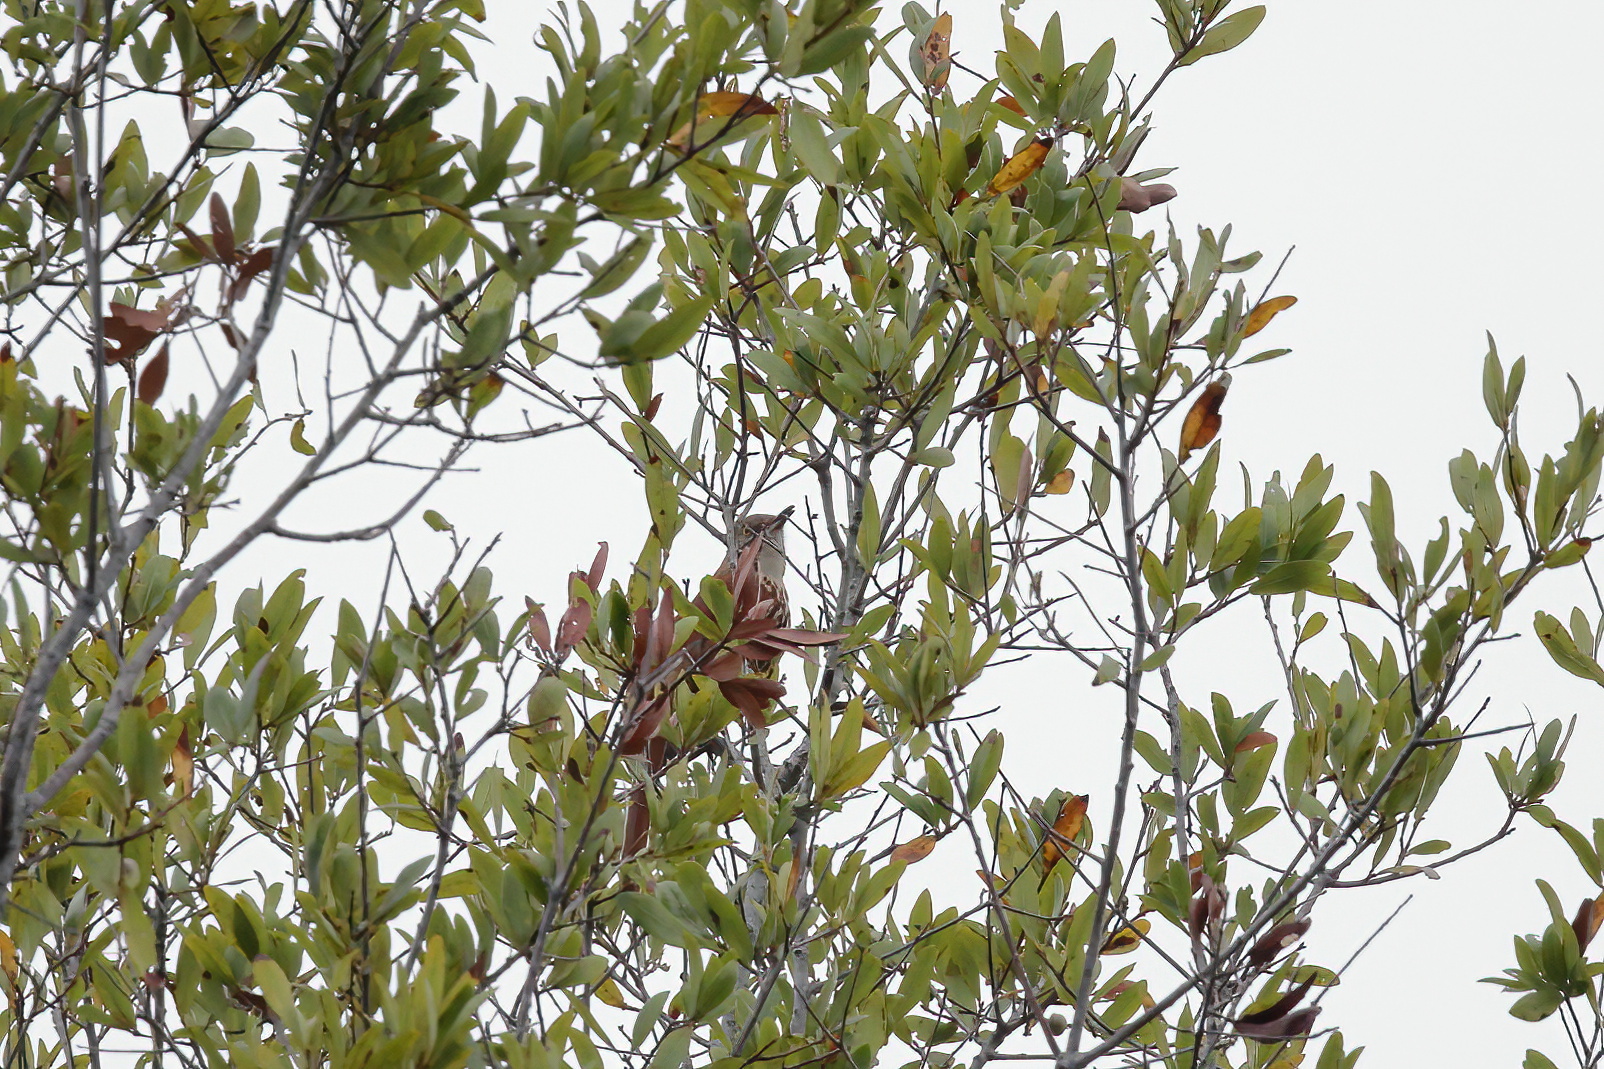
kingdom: Animalia
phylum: Chordata
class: Aves
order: Passeriformes
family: Mimidae
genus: Toxostoma
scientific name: Toxostoma rufum
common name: Brown thrasher
